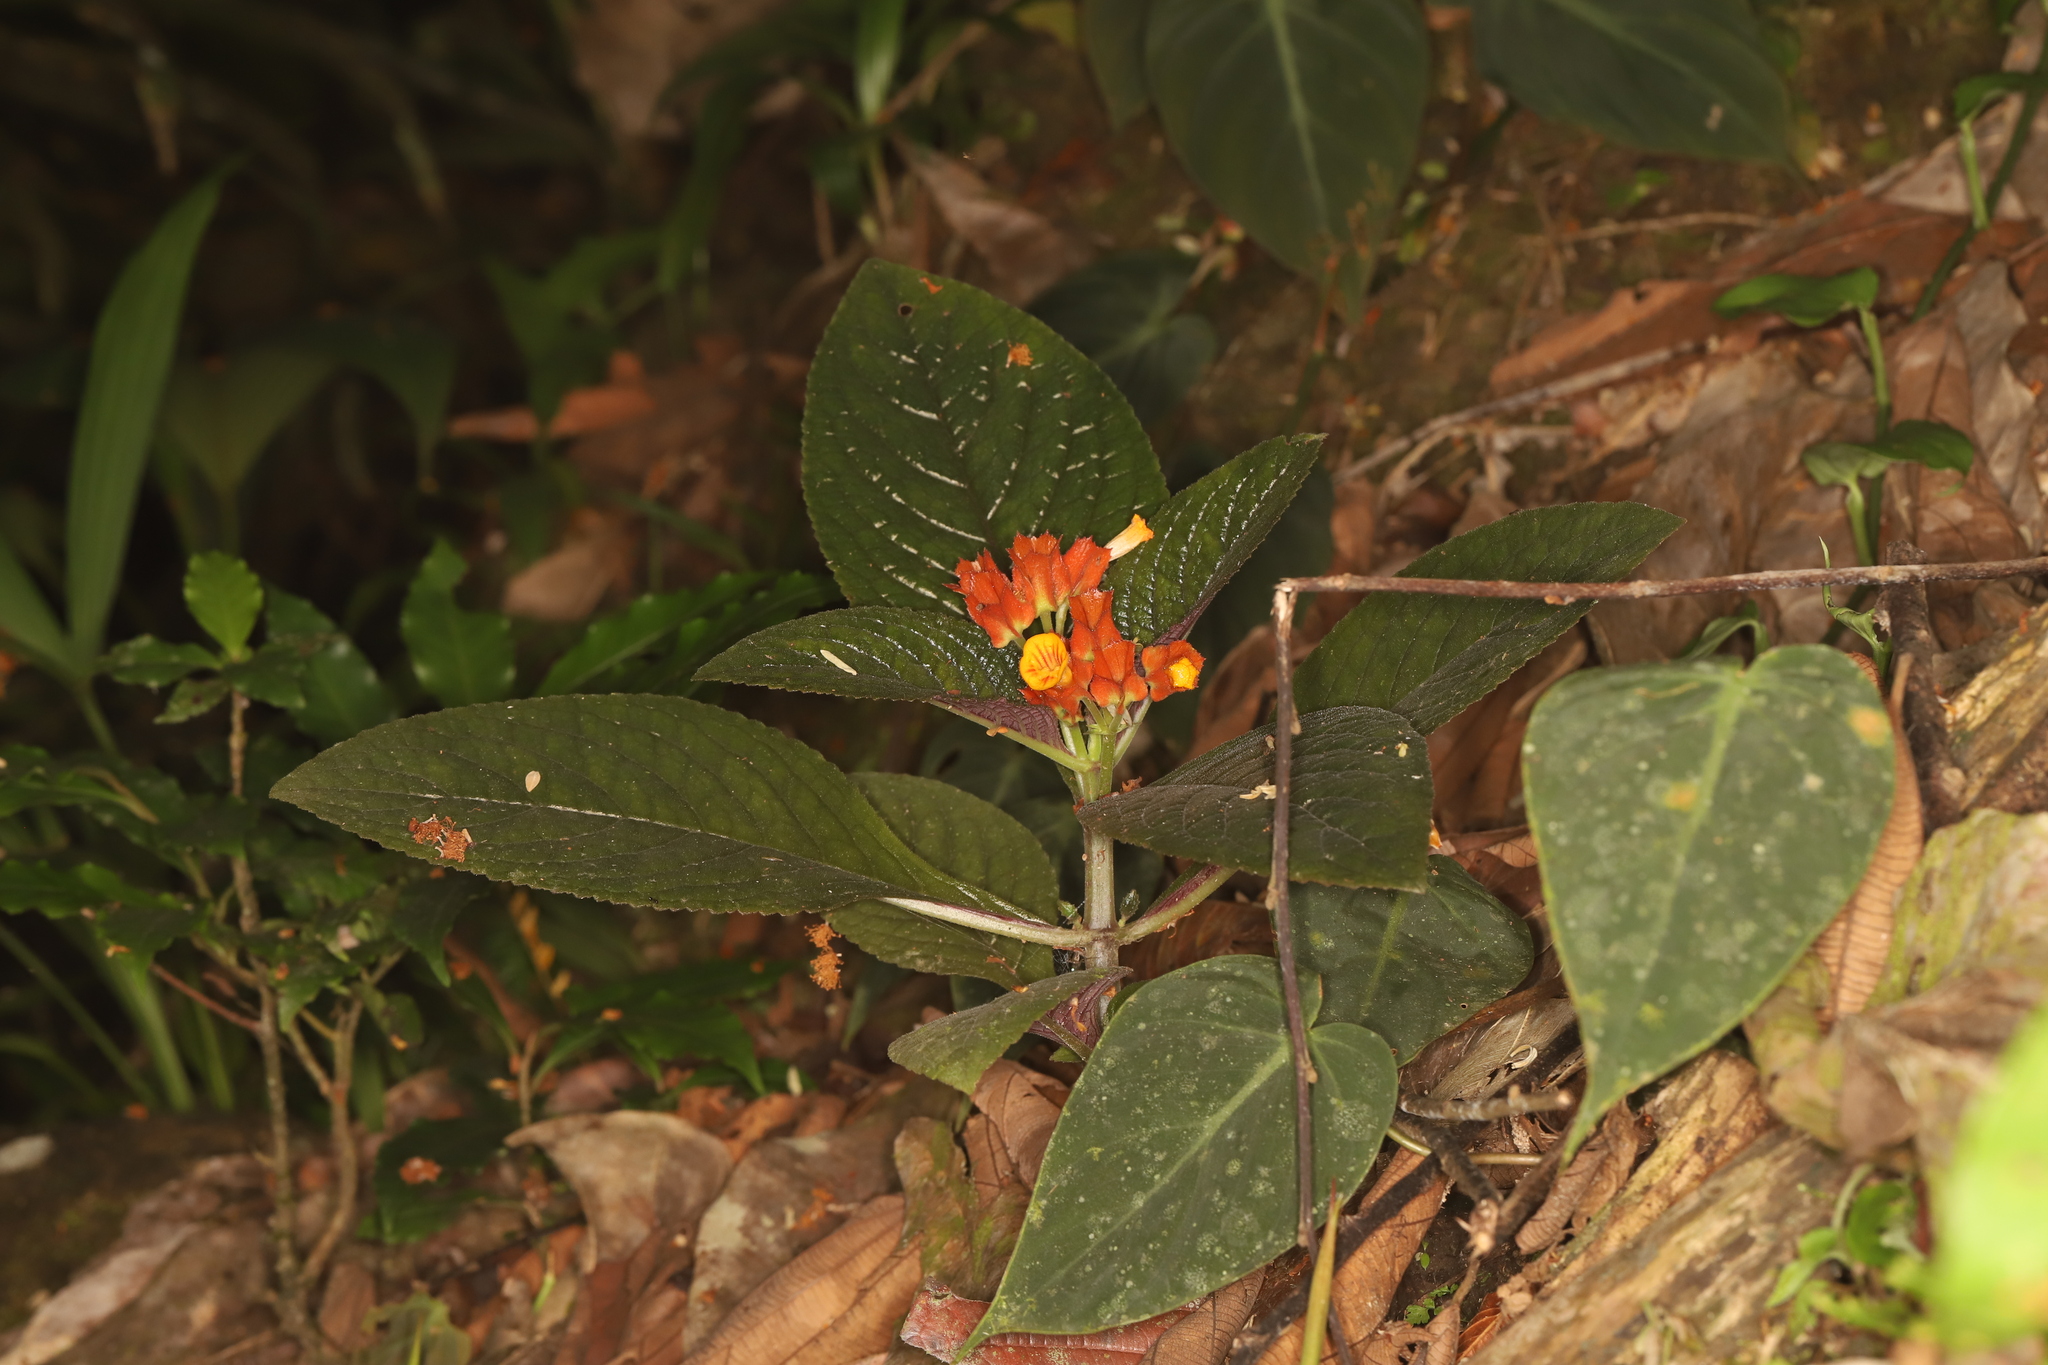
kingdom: Plantae
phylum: Tracheophyta
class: Magnoliopsida
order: Lamiales
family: Gesneriaceae
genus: Chrysothemis
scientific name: Chrysothemis pulchella
